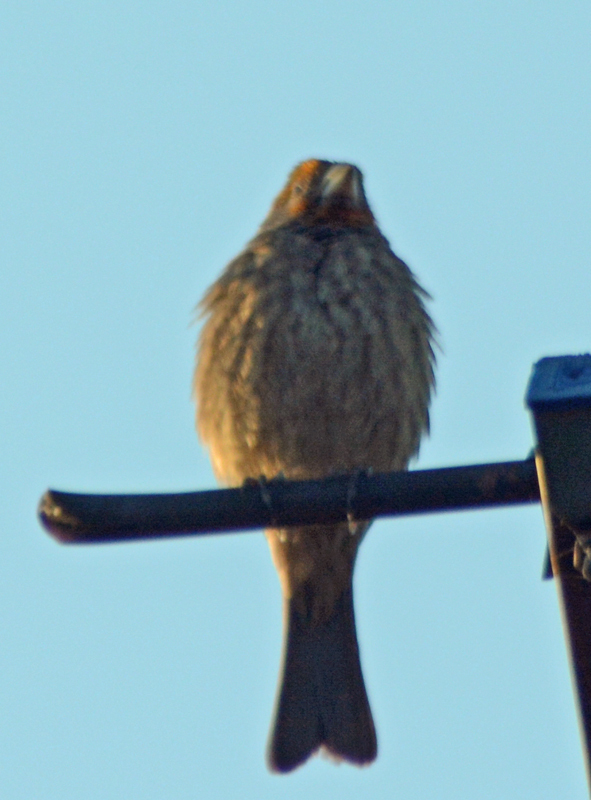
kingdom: Animalia
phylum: Chordata
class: Aves
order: Passeriformes
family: Fringillidae
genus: Haemorhous
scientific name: Haemorhous mexicanus
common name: House finch
